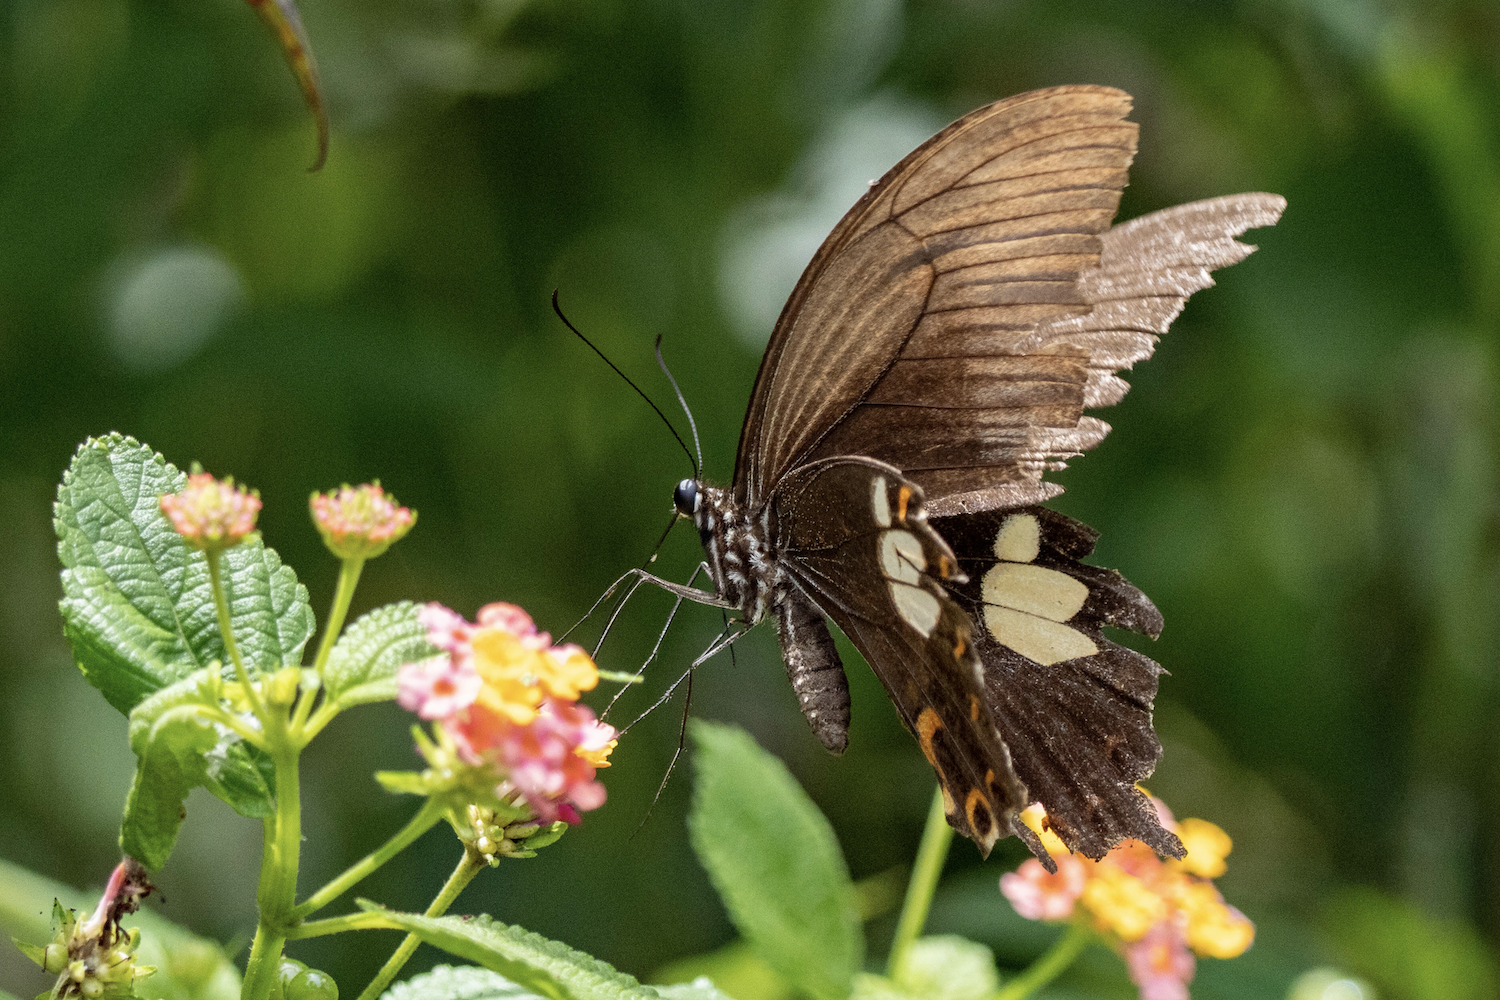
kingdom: Animalia
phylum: Arthropoda
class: Insecta
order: Lepidoptera
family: Papilionidae
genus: Papilio
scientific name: Papilio helenus
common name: Red helen
